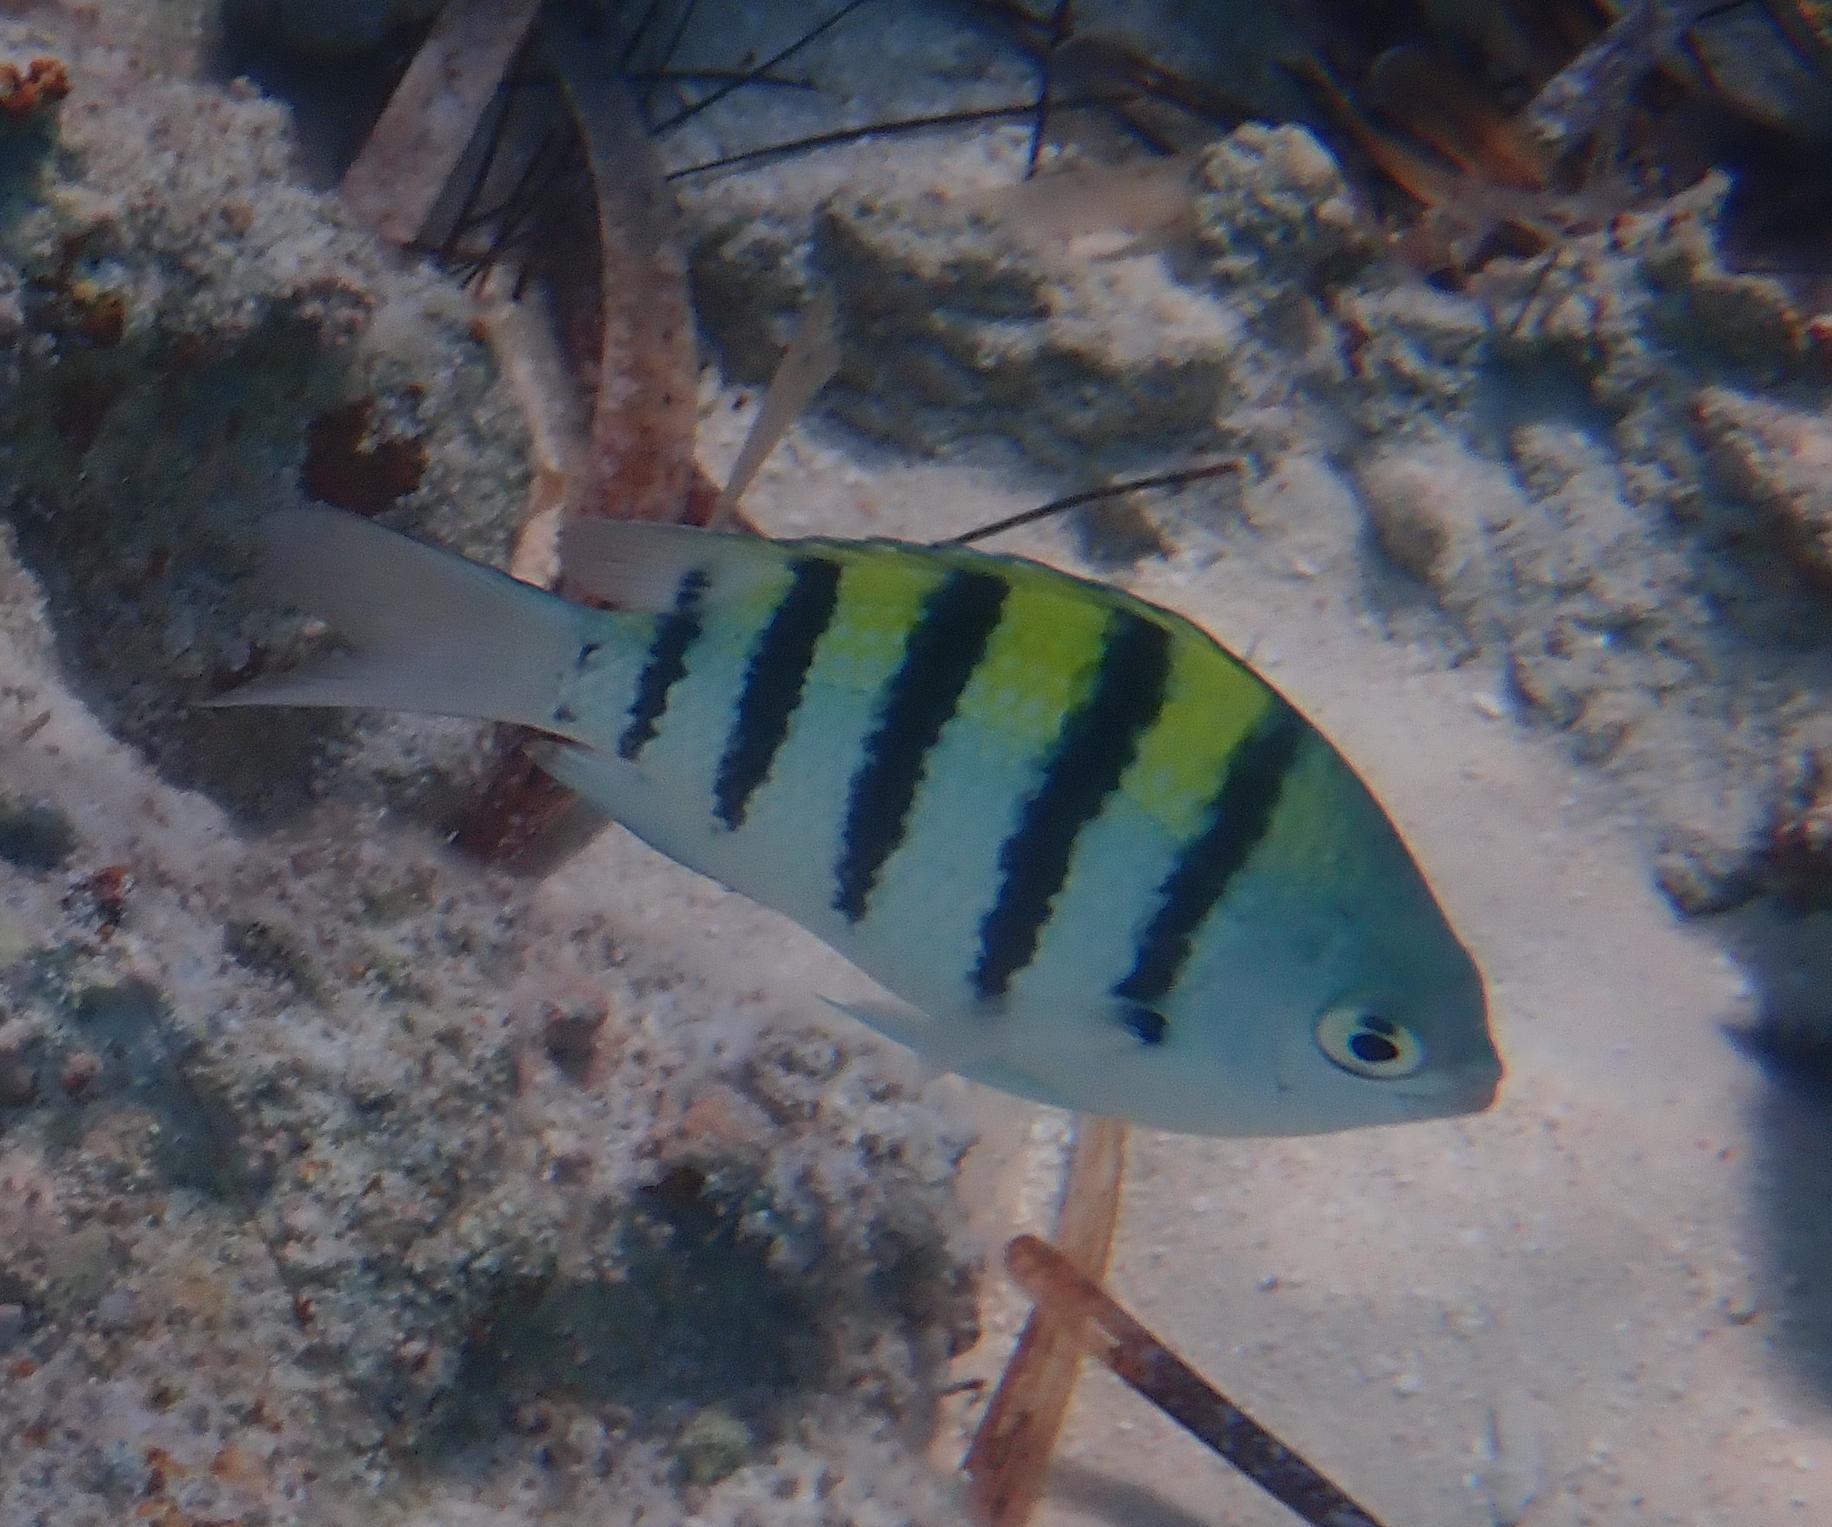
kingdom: Animalia
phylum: Chordata
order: Perciformes
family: Pomacentridae
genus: Abudefduf
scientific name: Abudefduf saxatilis
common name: Sergeant major
